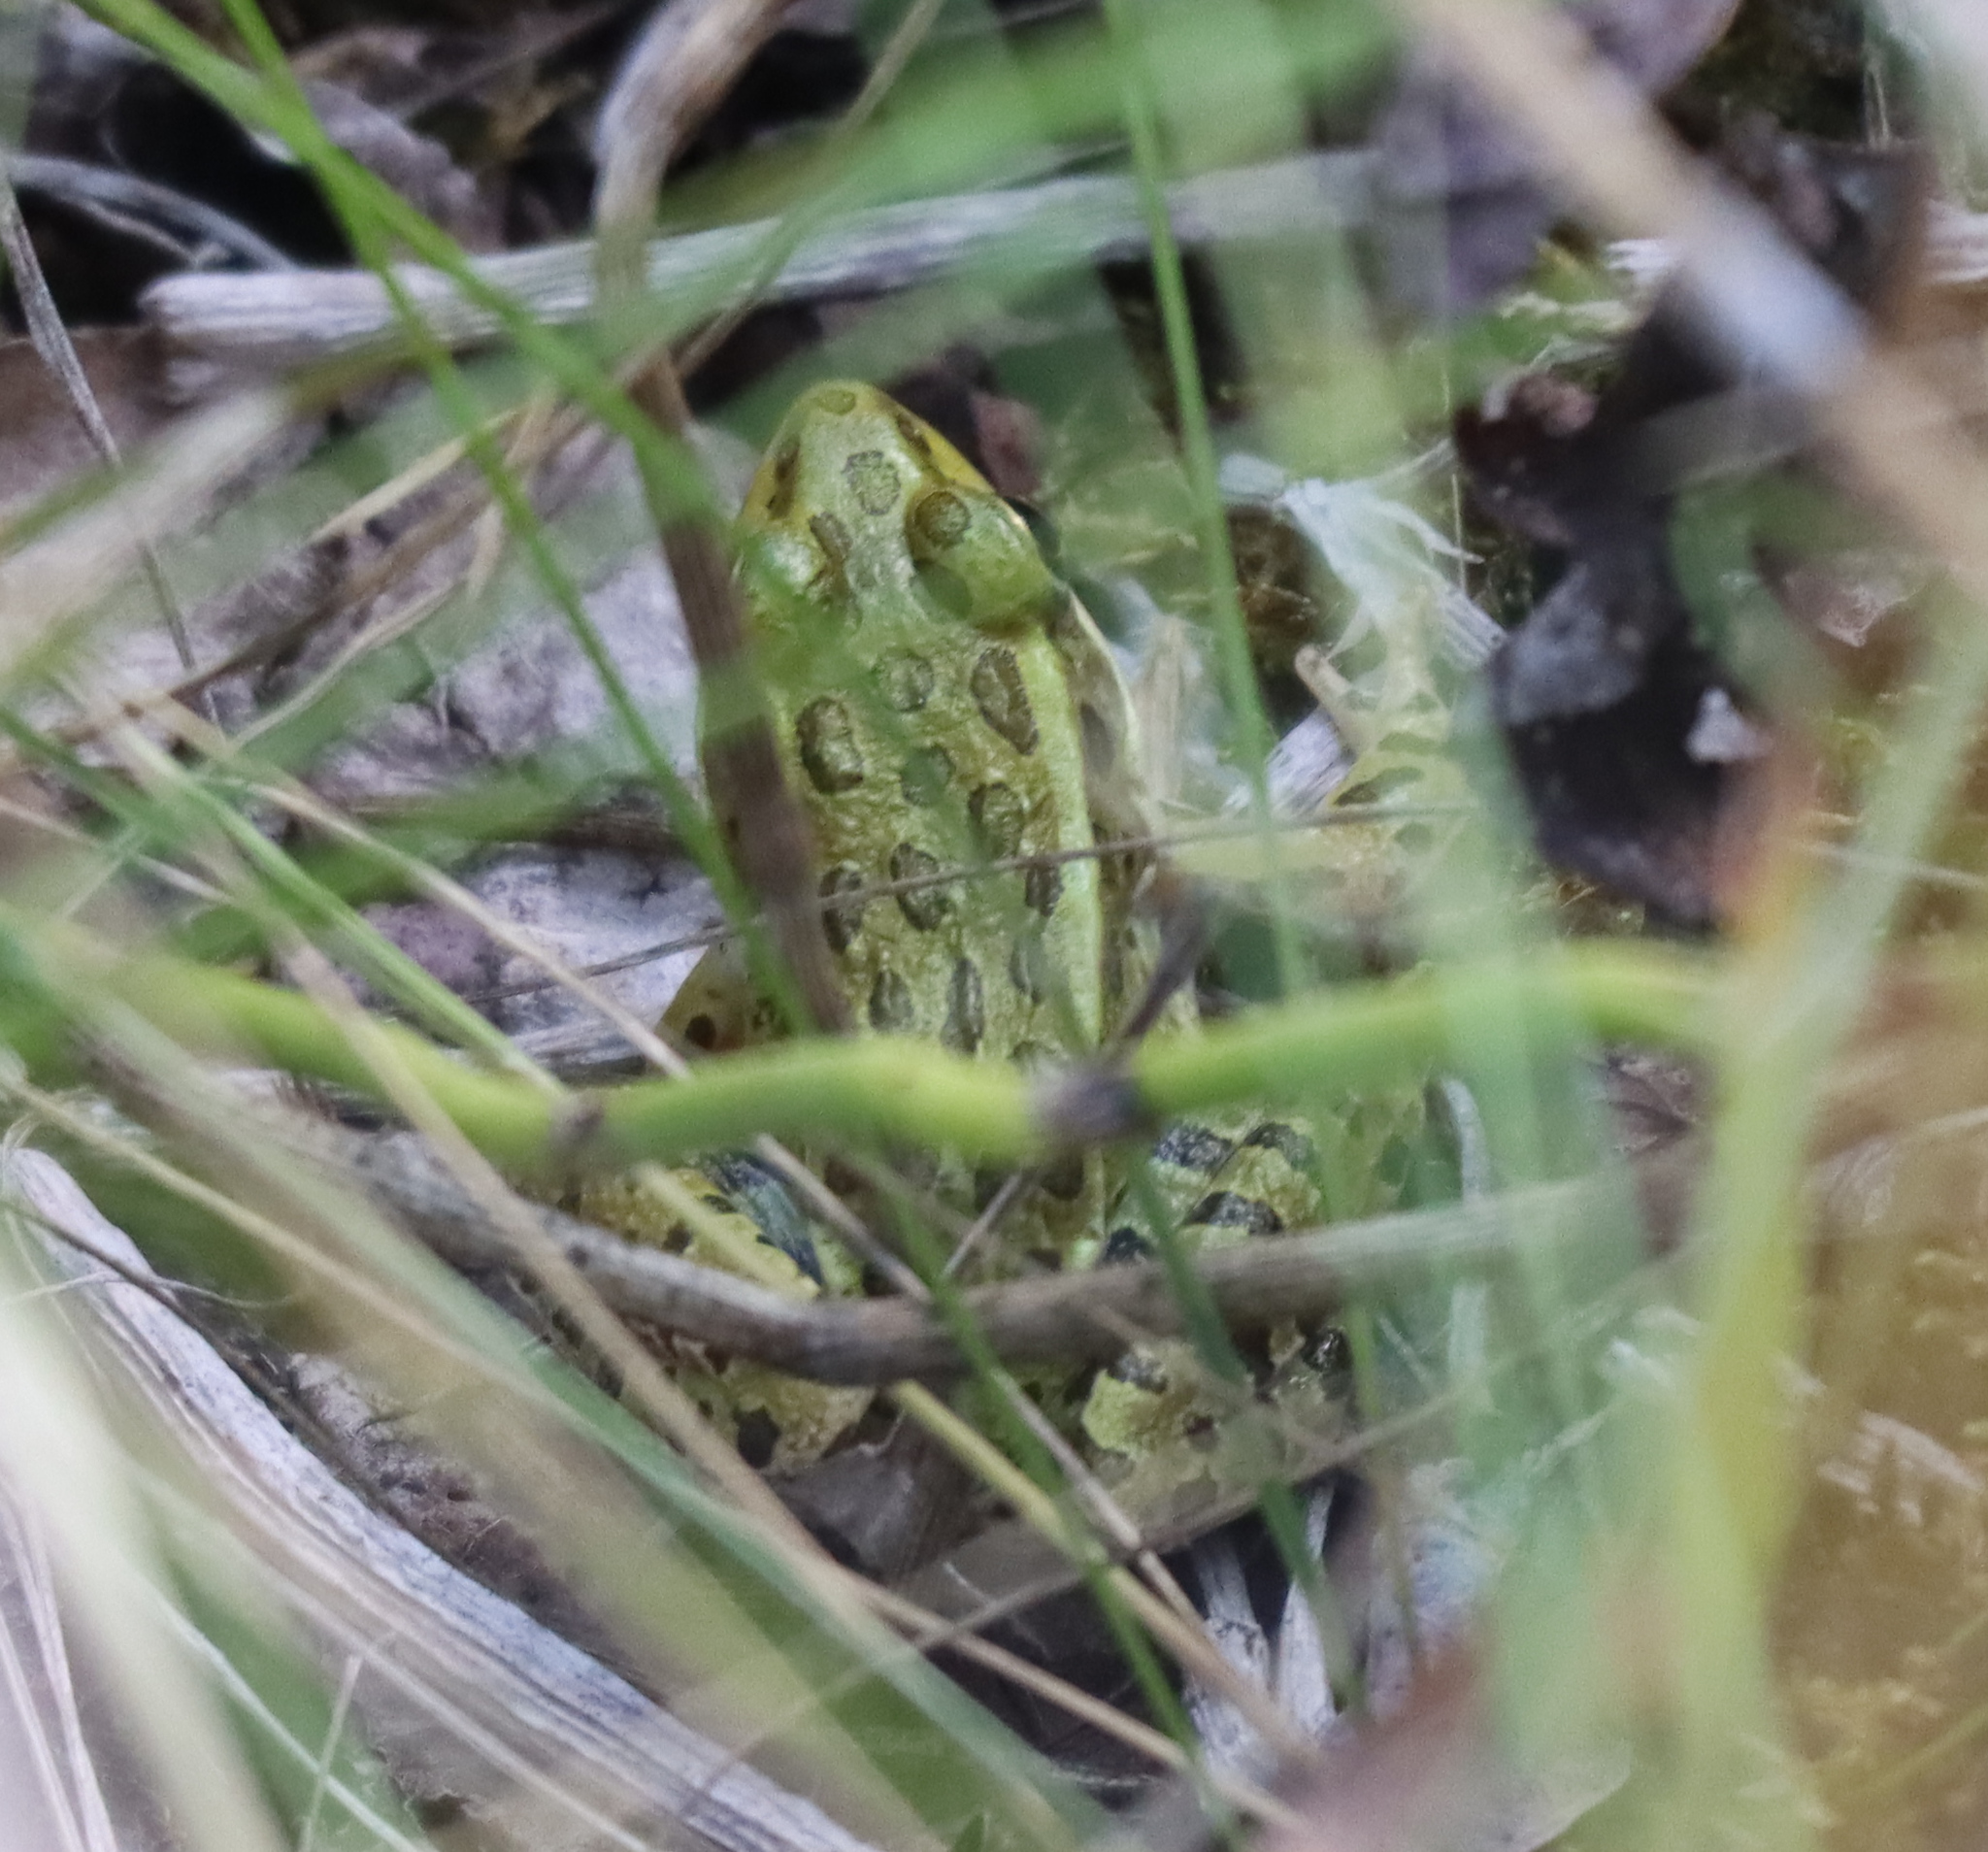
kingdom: Animalia
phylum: Chordata
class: Amphibia
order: Anura
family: Ranidae
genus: Lithobates
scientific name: Lithobates pipiens
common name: Northern leopard frog
